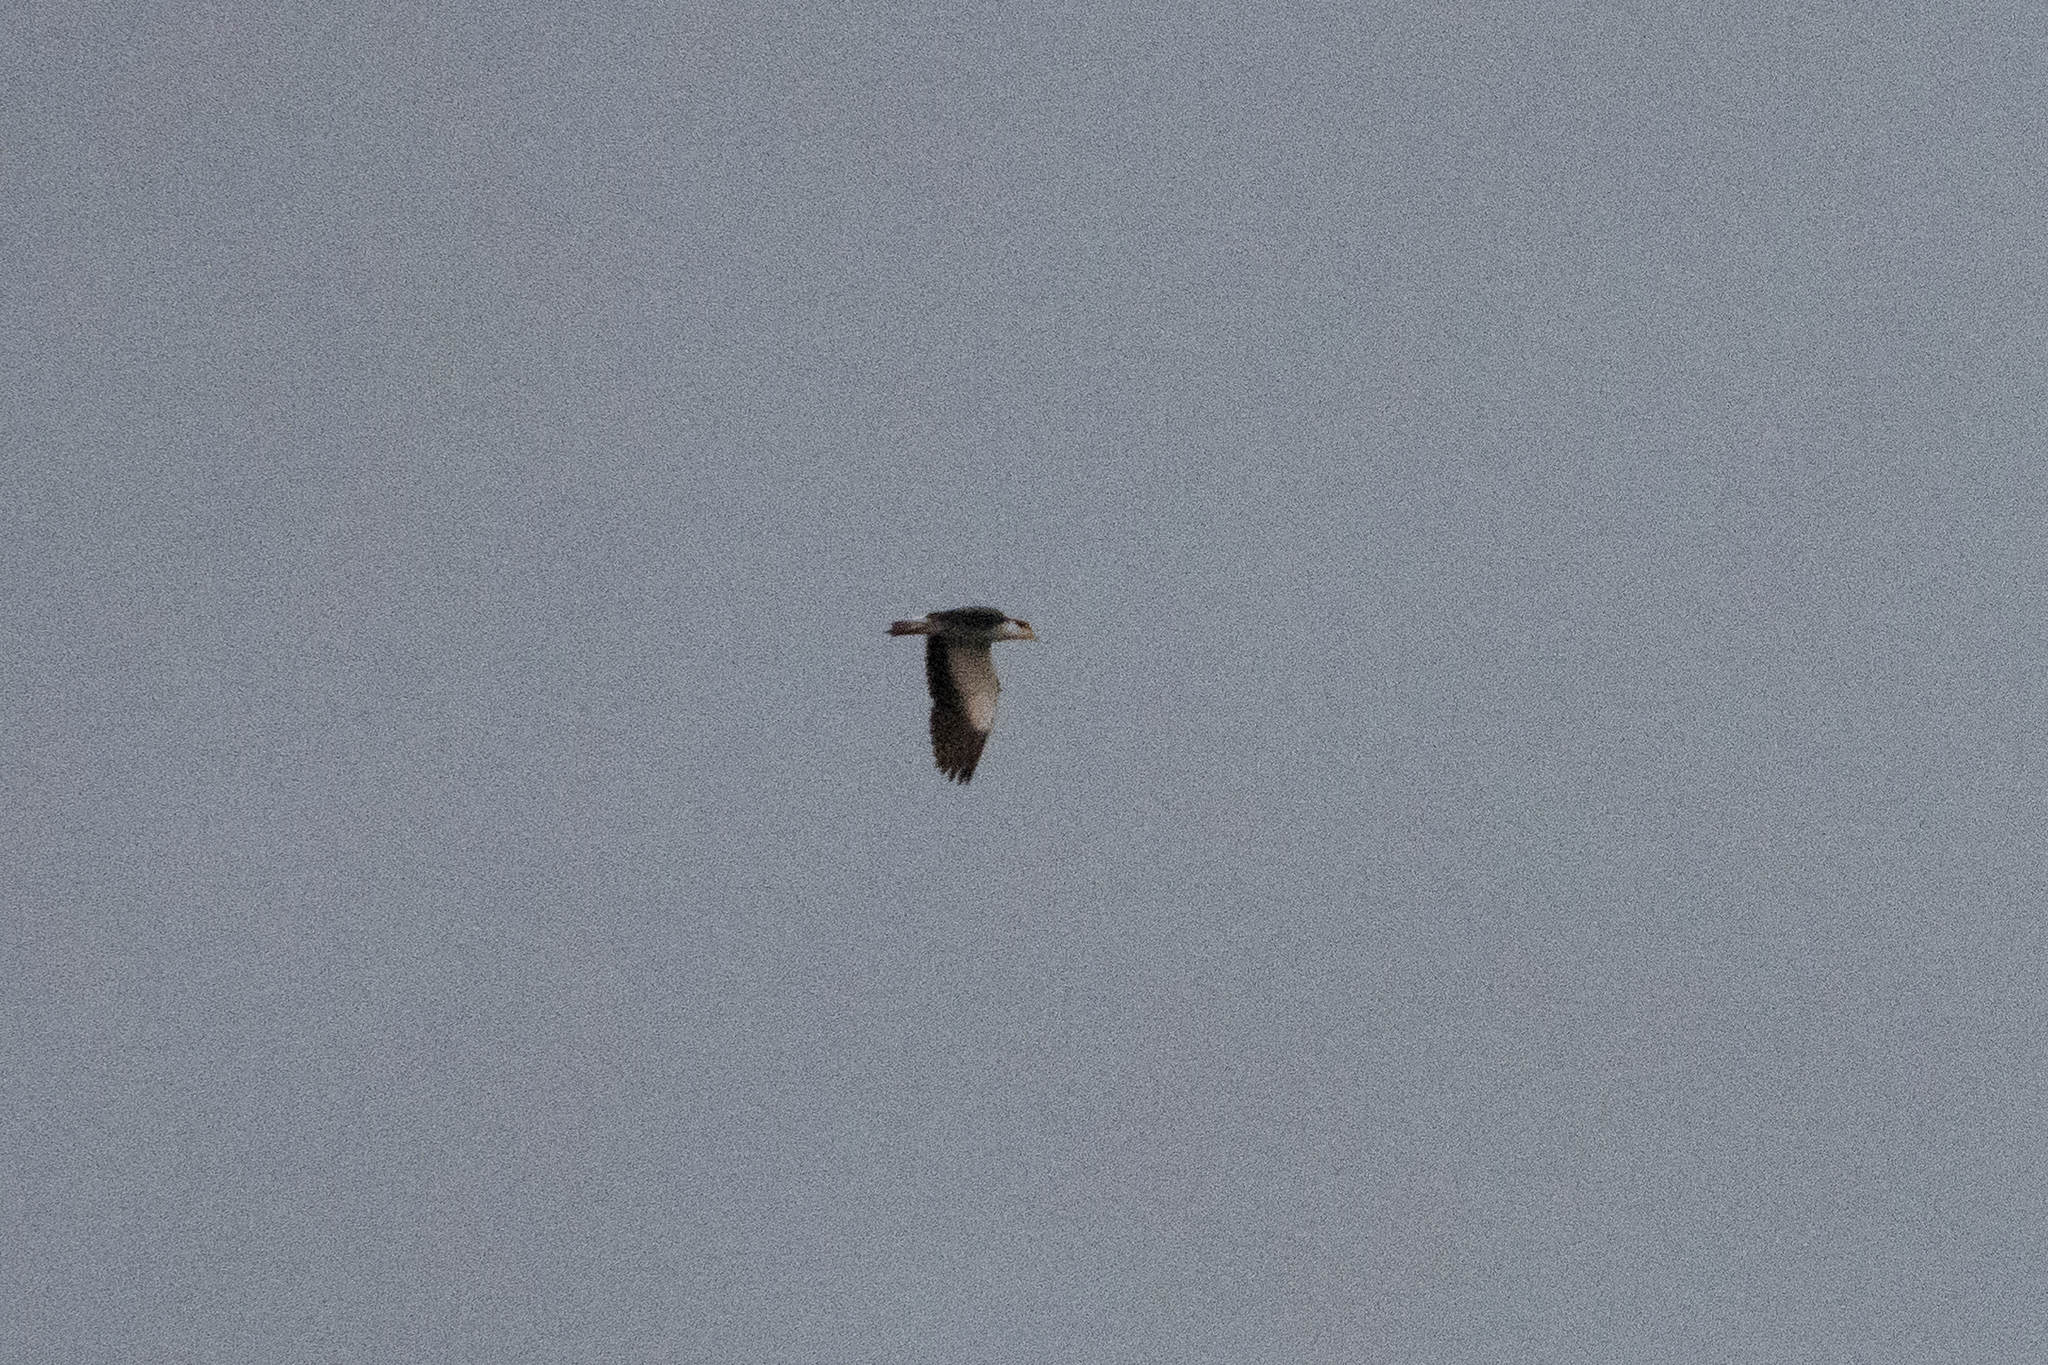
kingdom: Animalia
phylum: Chordata
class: Aves
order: Charadriiformes
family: Charadriidae
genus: Vanellus
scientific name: Vanellus miles
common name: Masked lapwing
